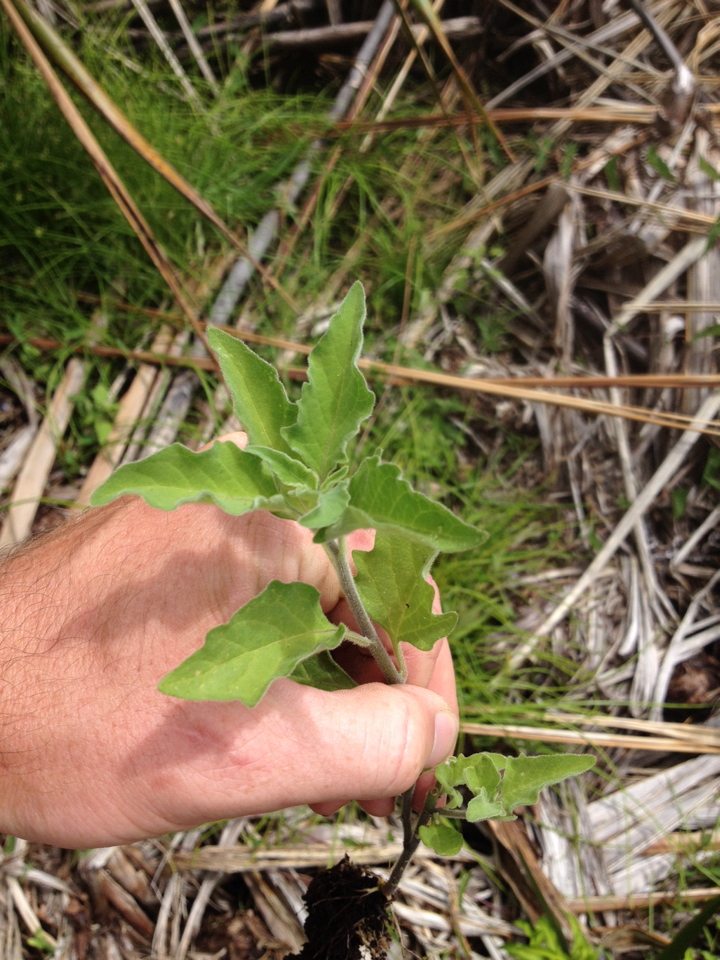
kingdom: Plantae
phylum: Tracheophyta
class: Magnoliopsida
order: Solanales
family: Solanaceae
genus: Solanum
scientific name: Solanum chenopodioides
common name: Tall nightshade
